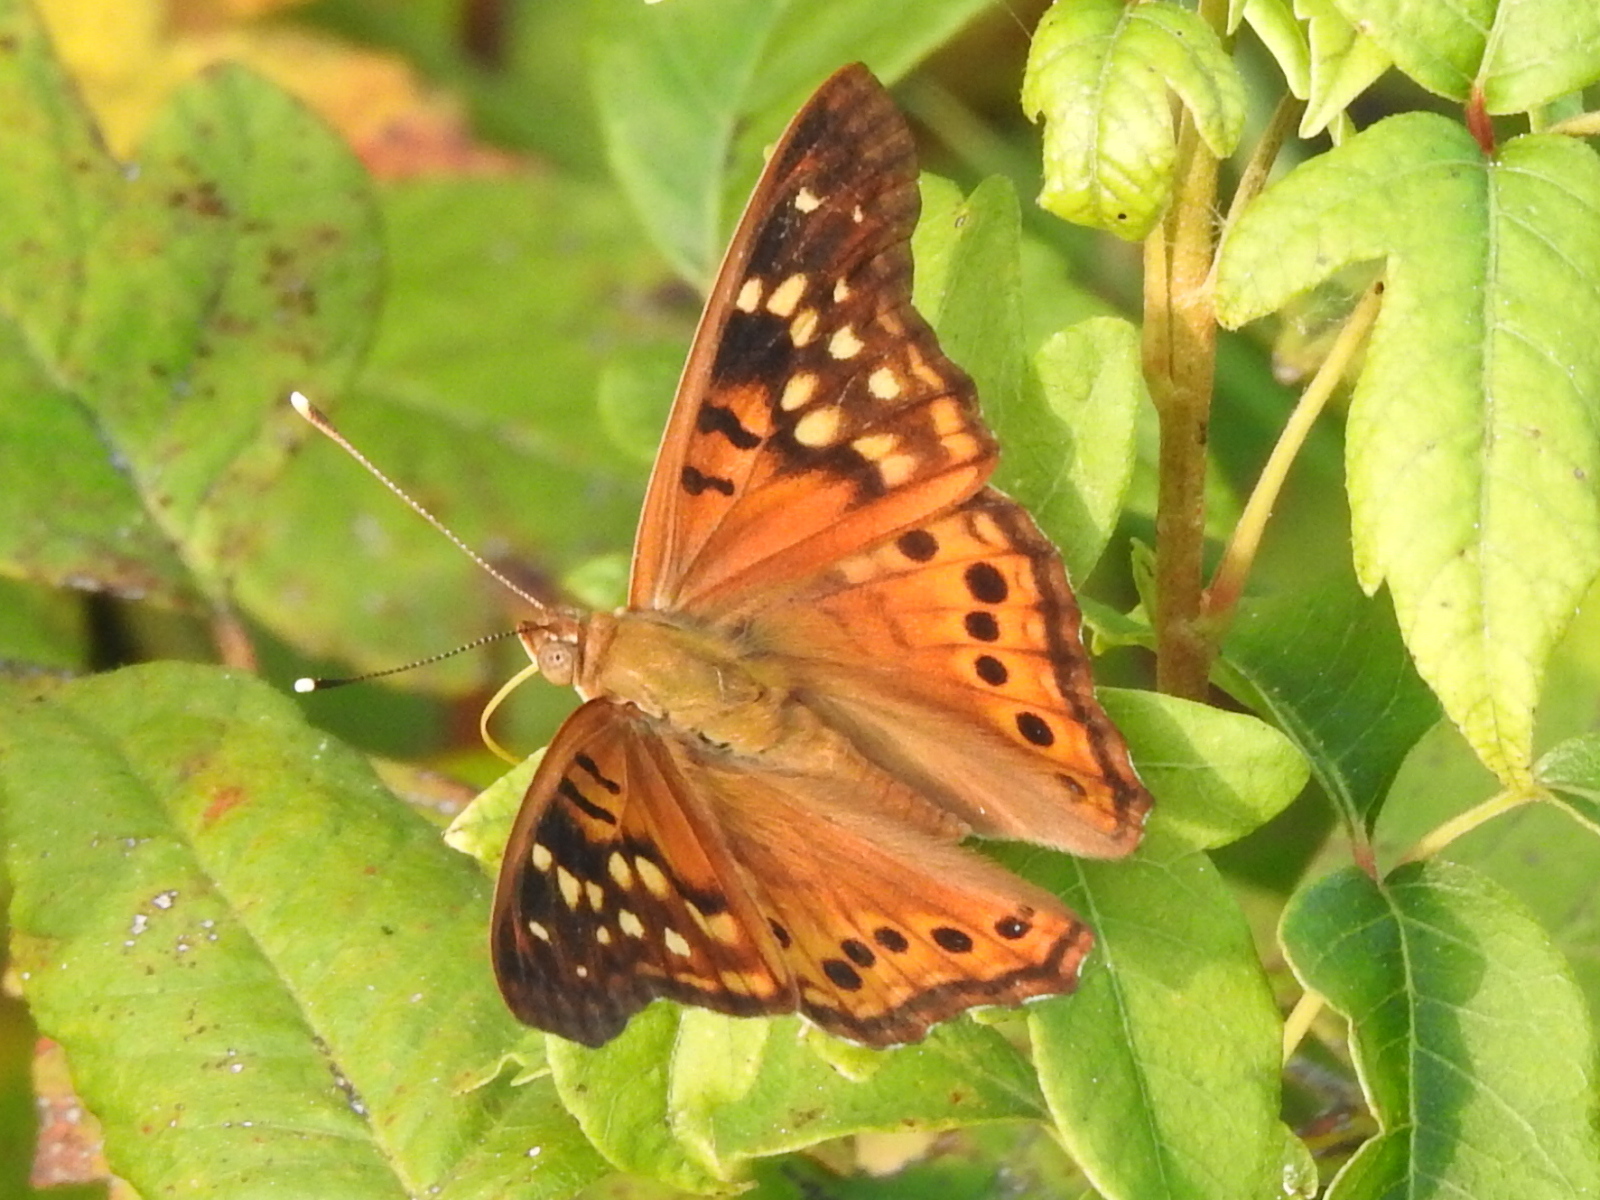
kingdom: Animalia
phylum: Arthropoda
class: Insecta
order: Lepidoptera
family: Nymphalidae
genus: Asterocampa
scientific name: Asterocampa clyton
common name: Tawny emperor
